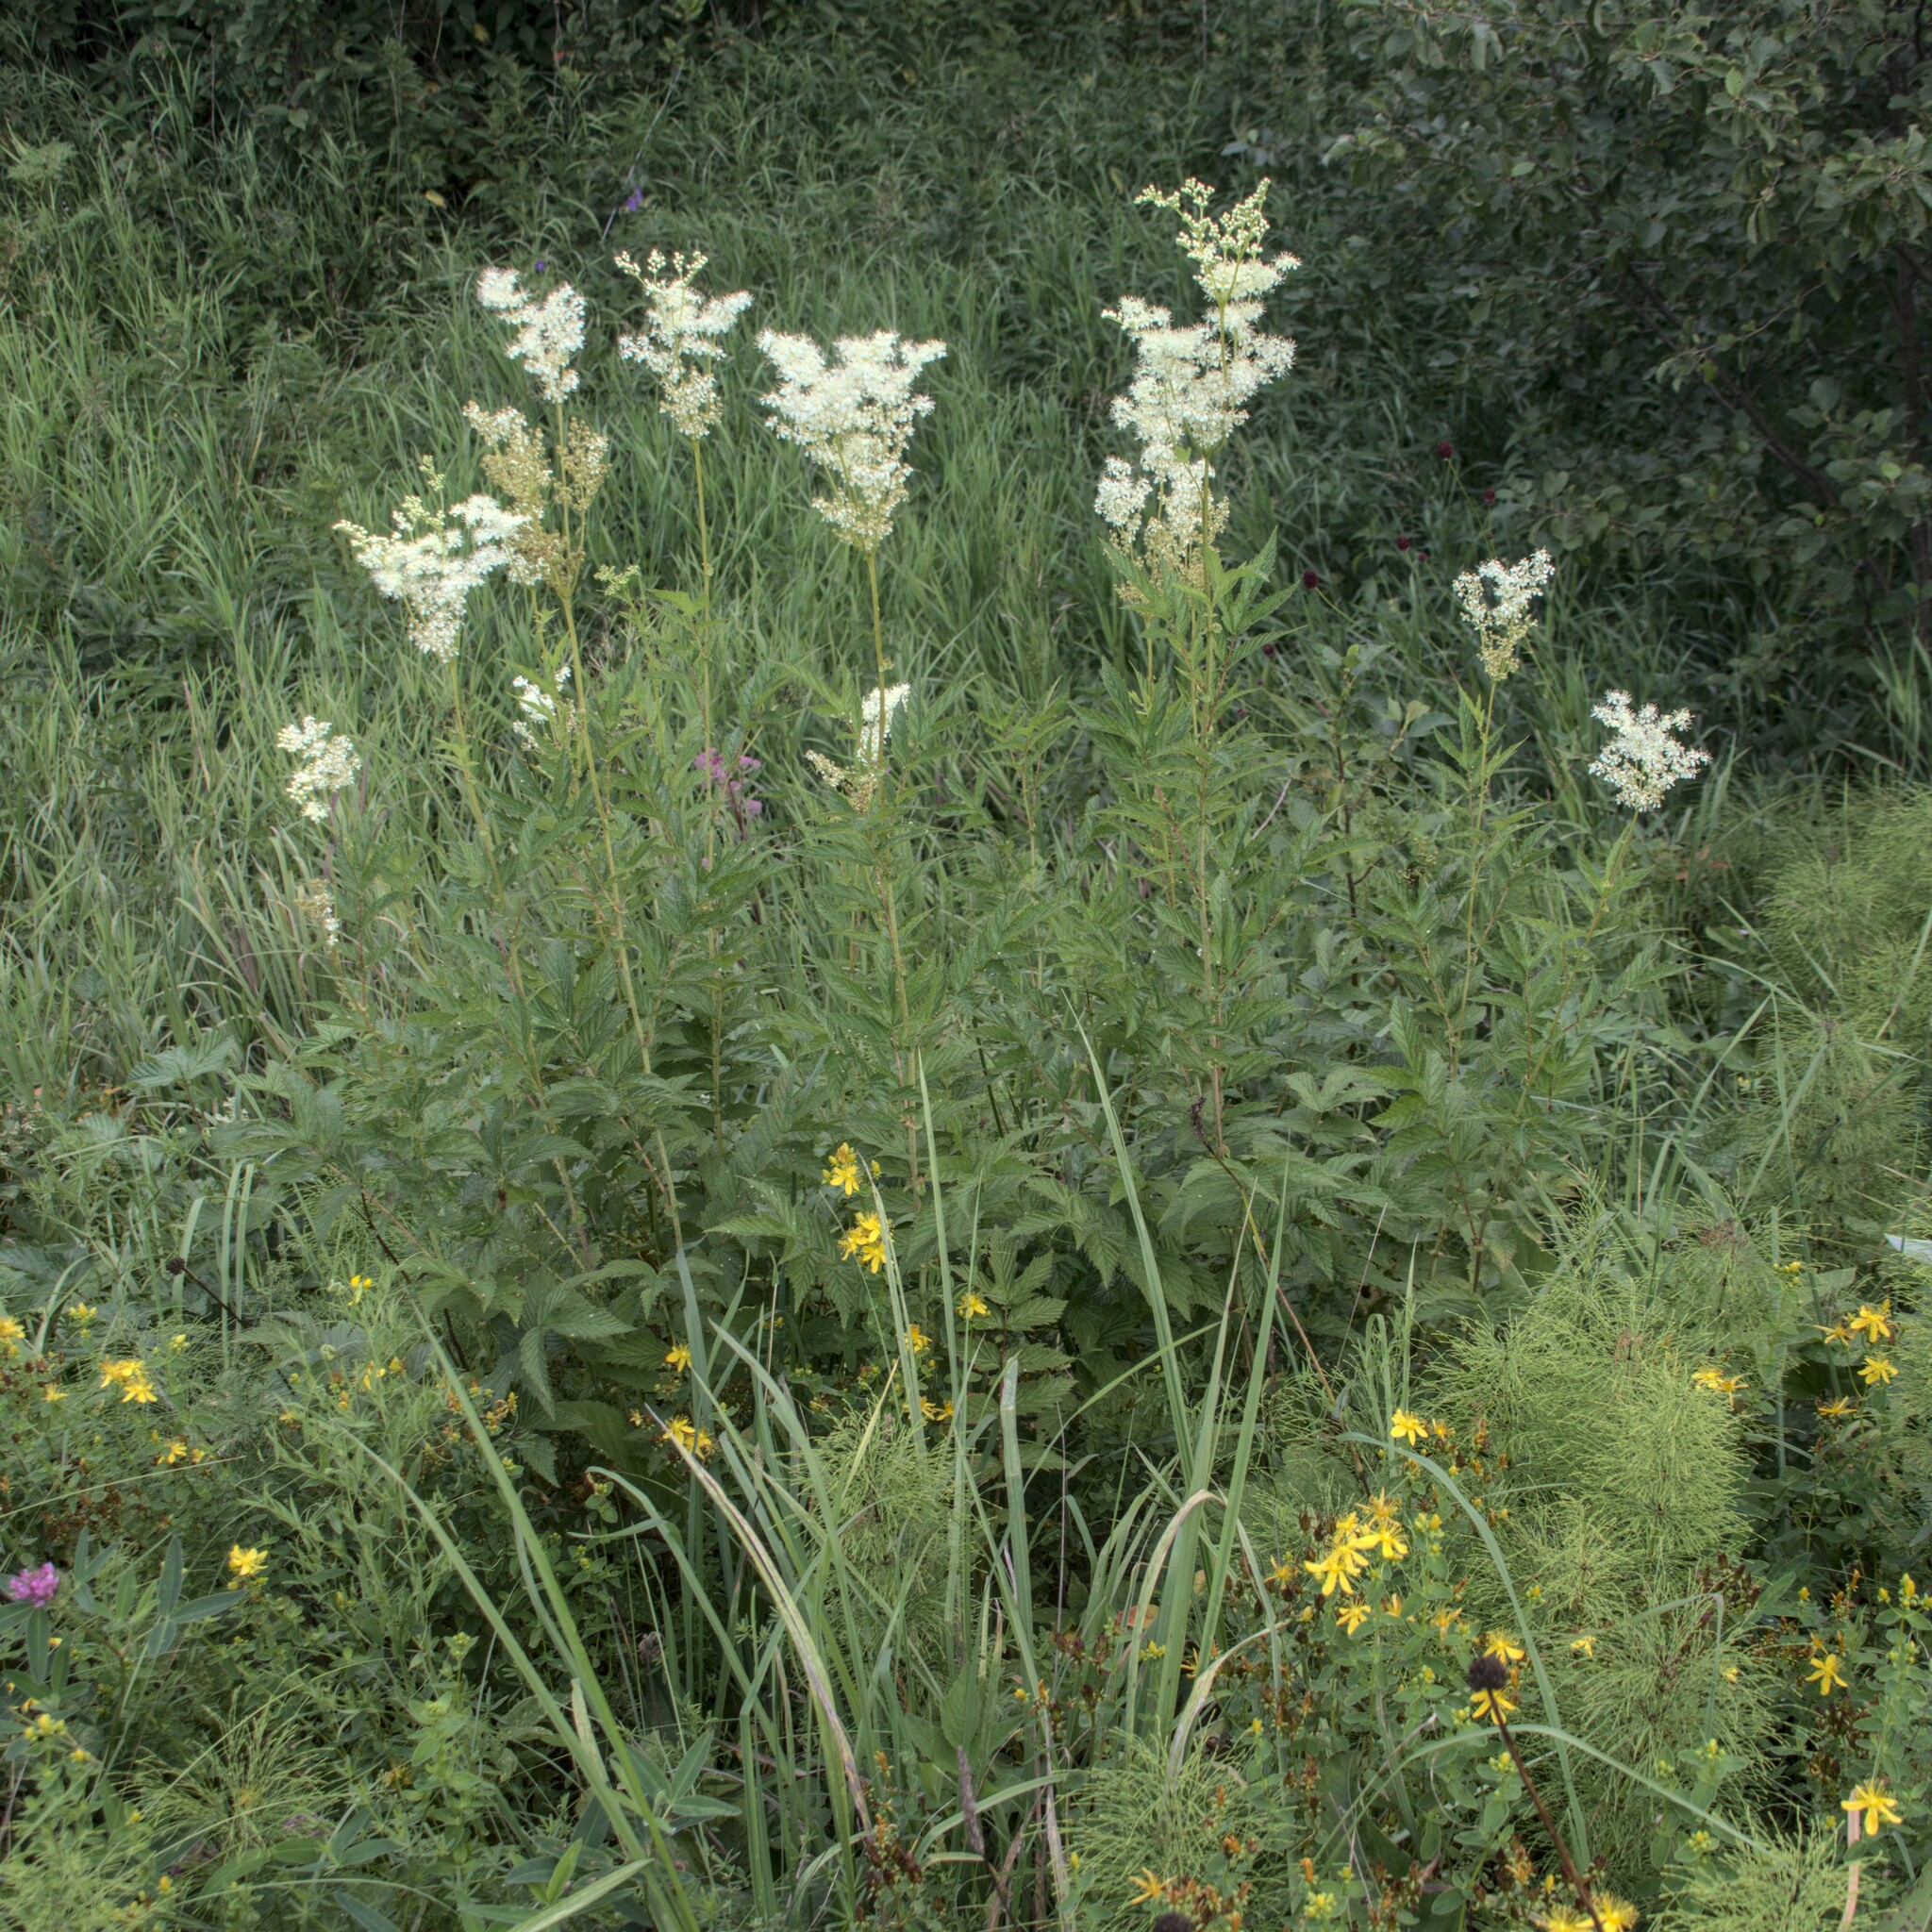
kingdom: Plantae
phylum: Tracheophyta
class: Magnoliopsida
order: Rosales
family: Rosaceae
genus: Filipendula
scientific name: Filipendula ulmaria
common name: Meadowsweet
